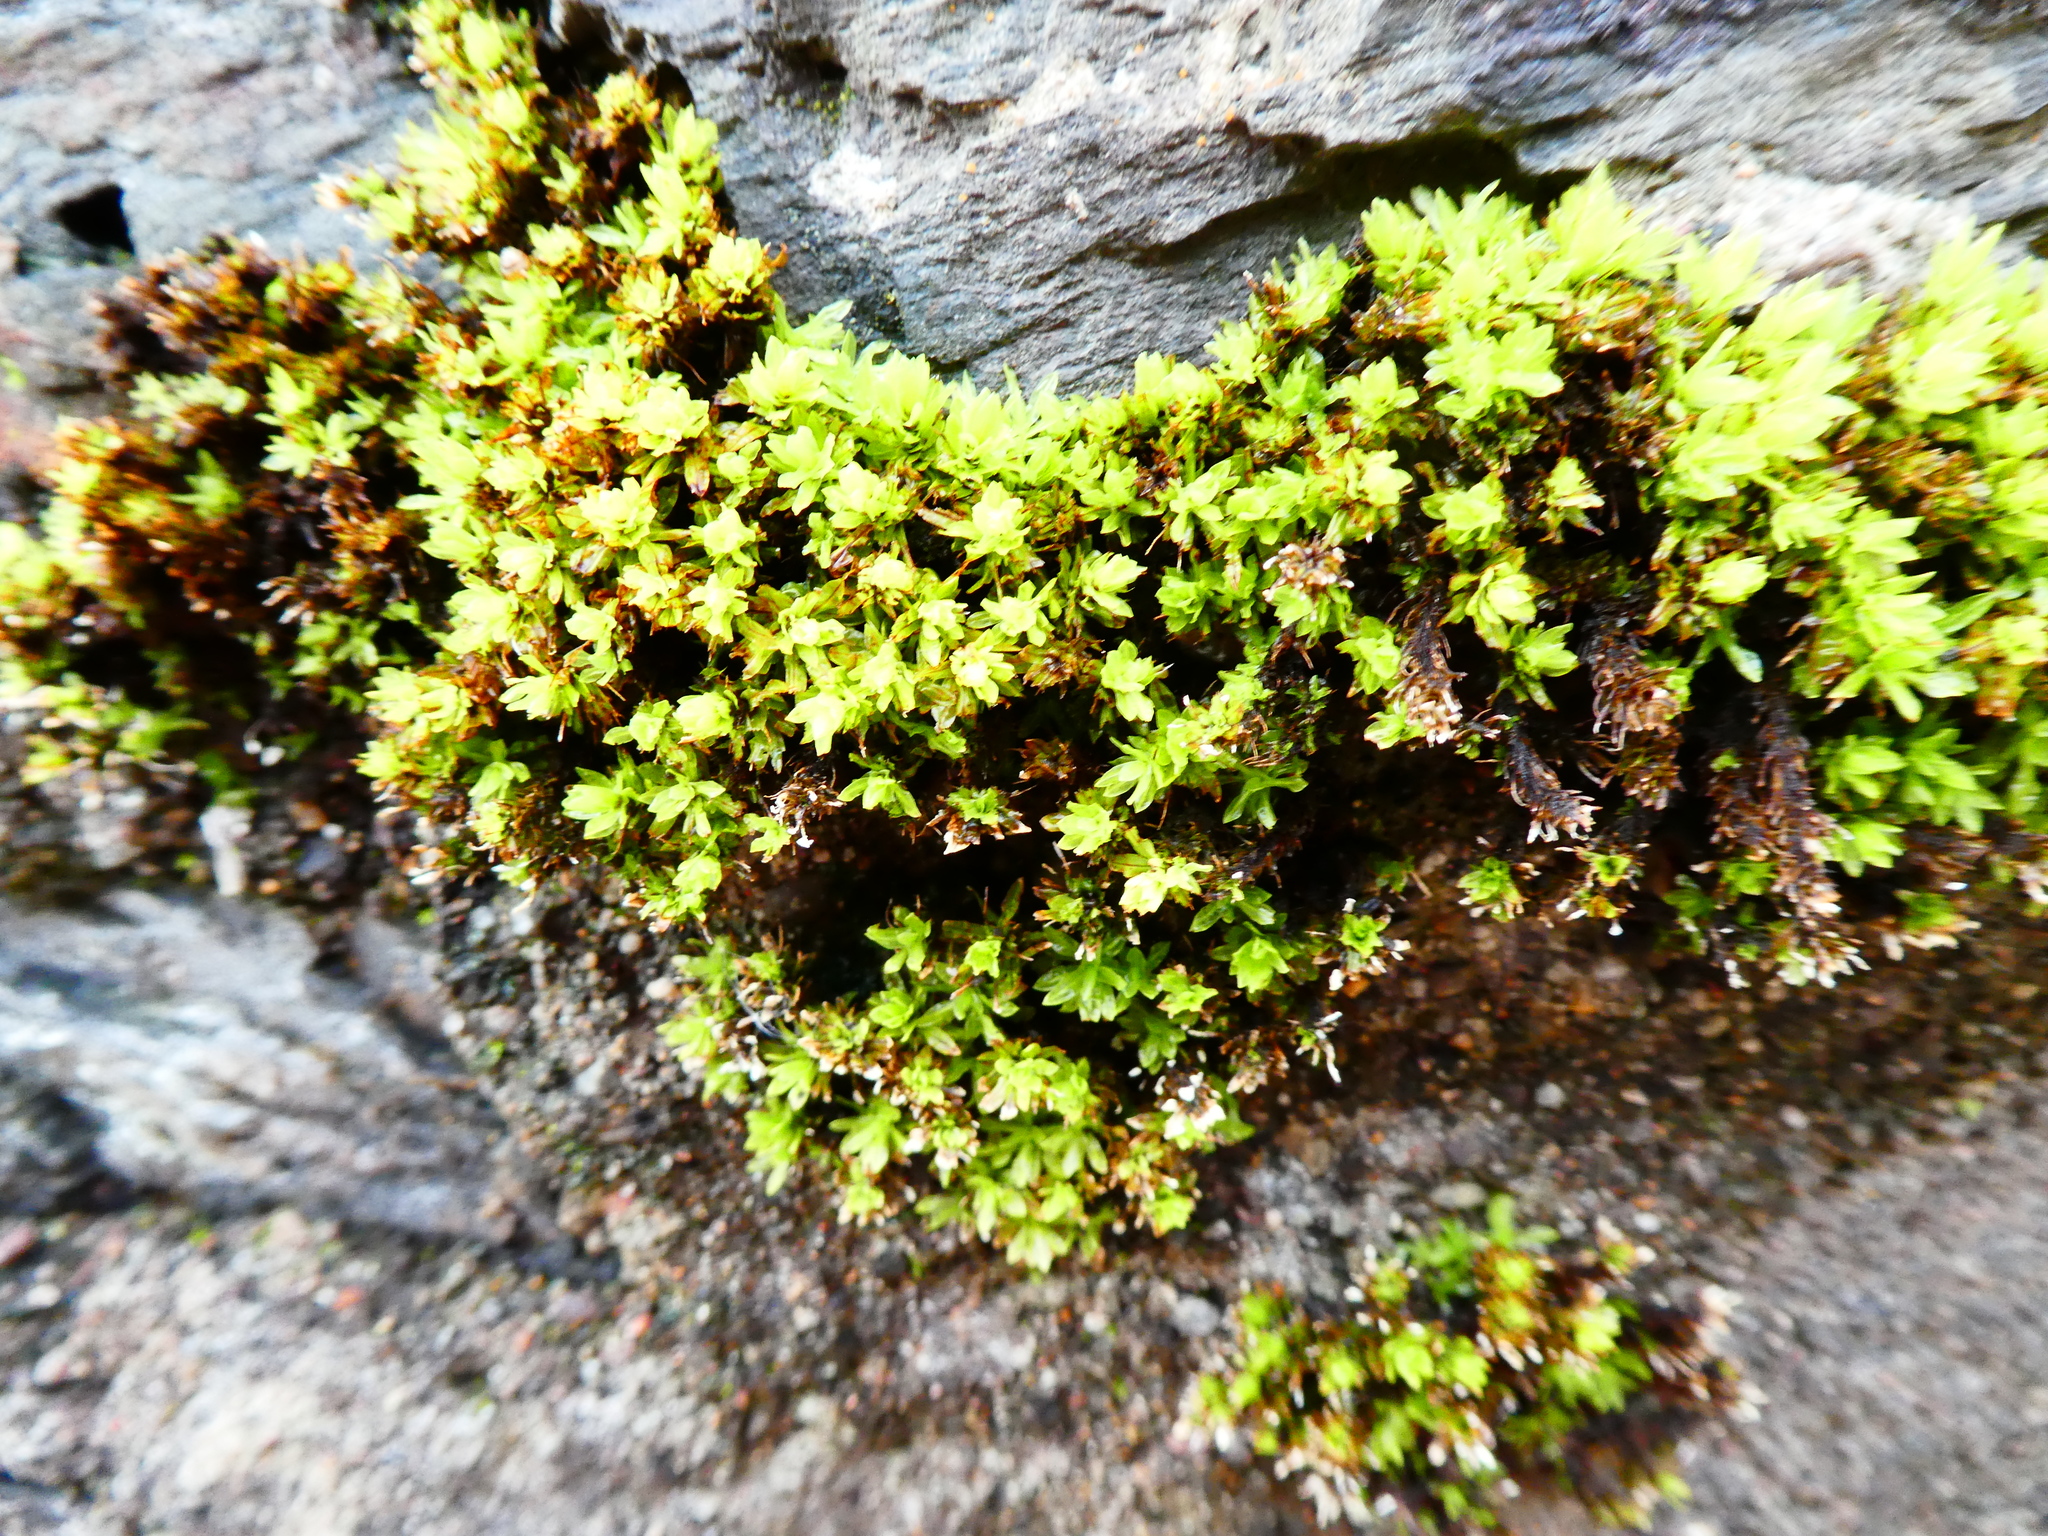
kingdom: Plantae
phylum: Bryophyta
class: Bryopsida
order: Encalyptales
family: Encalyptaceae
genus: Encalypta
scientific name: Encalypta streptocarpa
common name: Spiral extinguisher-moss
